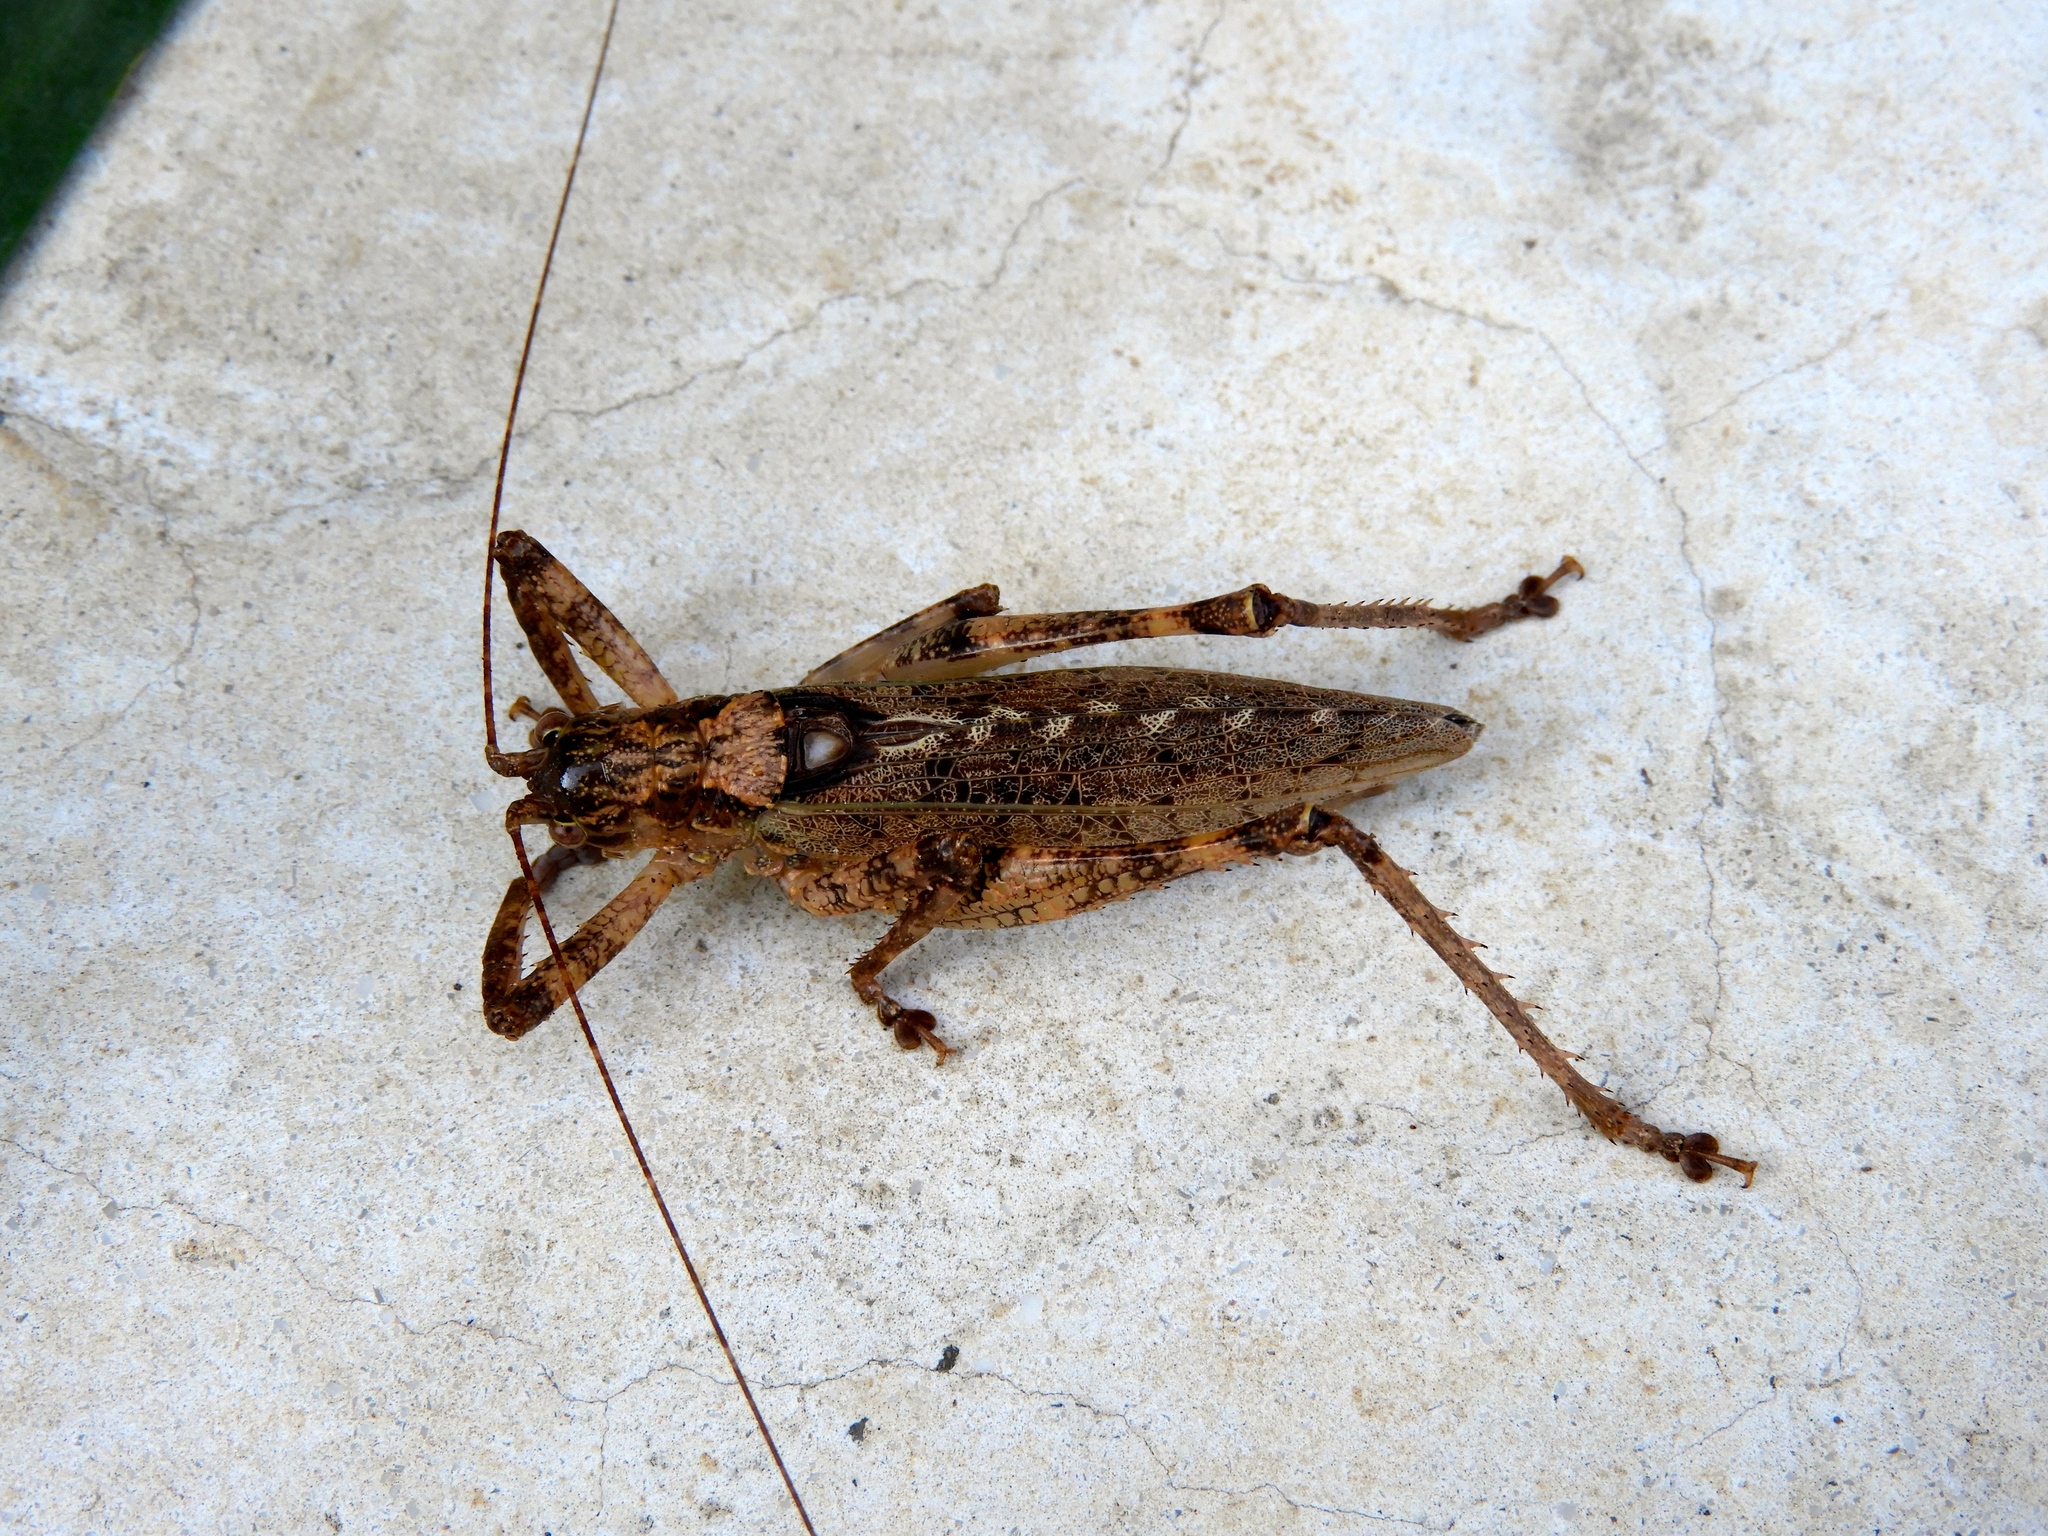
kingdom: Animalia
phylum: Arthropoda
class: Insecta
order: Orthoptera
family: Tettigoniidae
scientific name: Tettigoniidae
